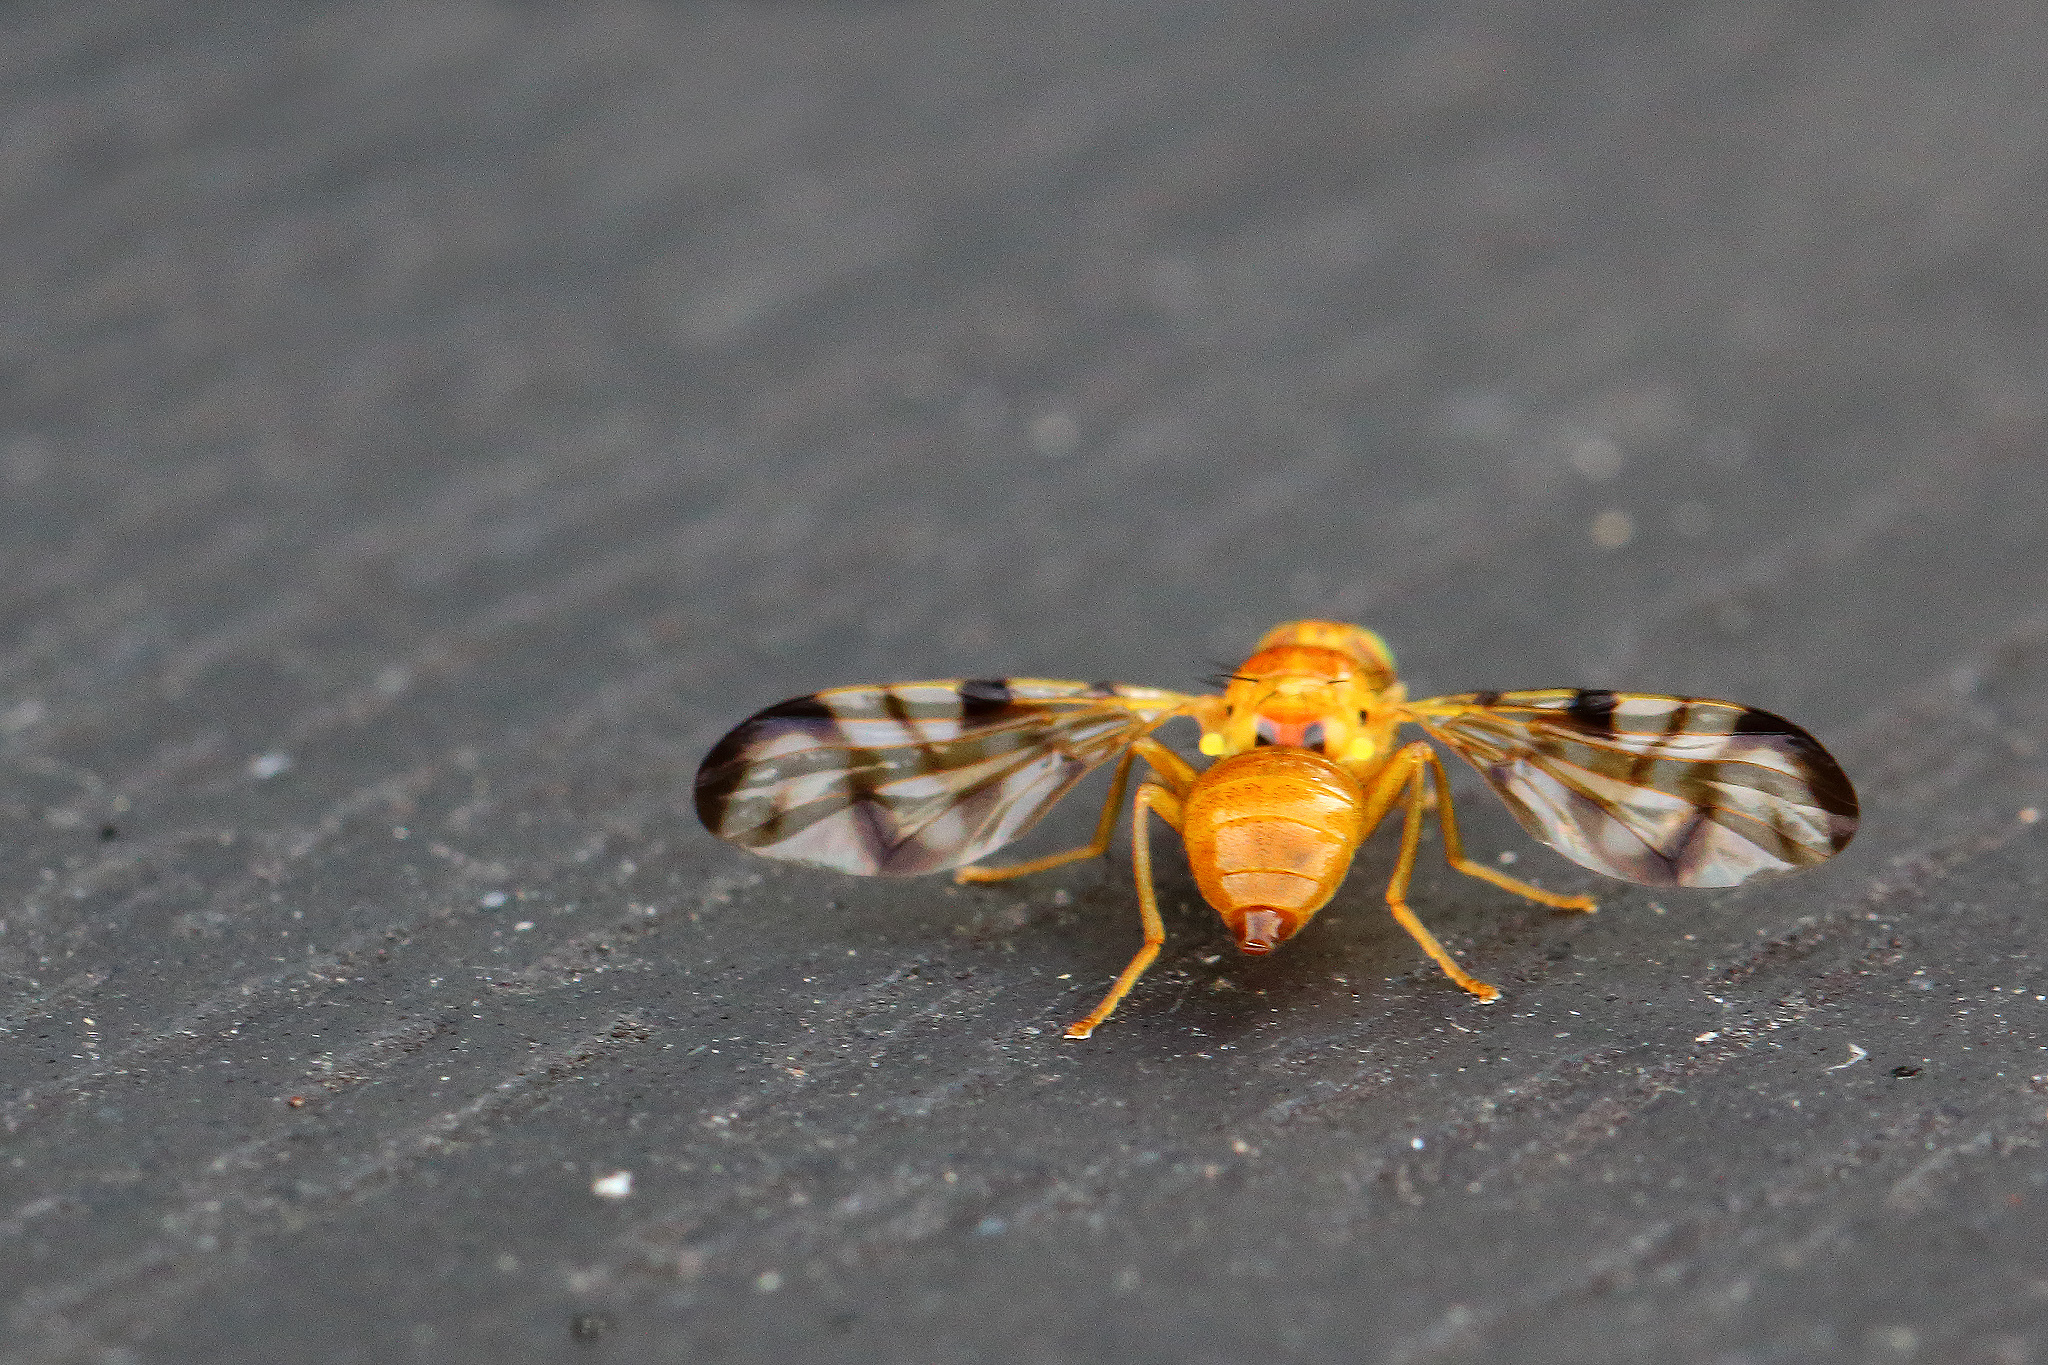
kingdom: Animalia
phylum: Arthropoda
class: Insecta
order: Diptera
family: Tephritidae
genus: Acidia
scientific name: Acidia cognata
